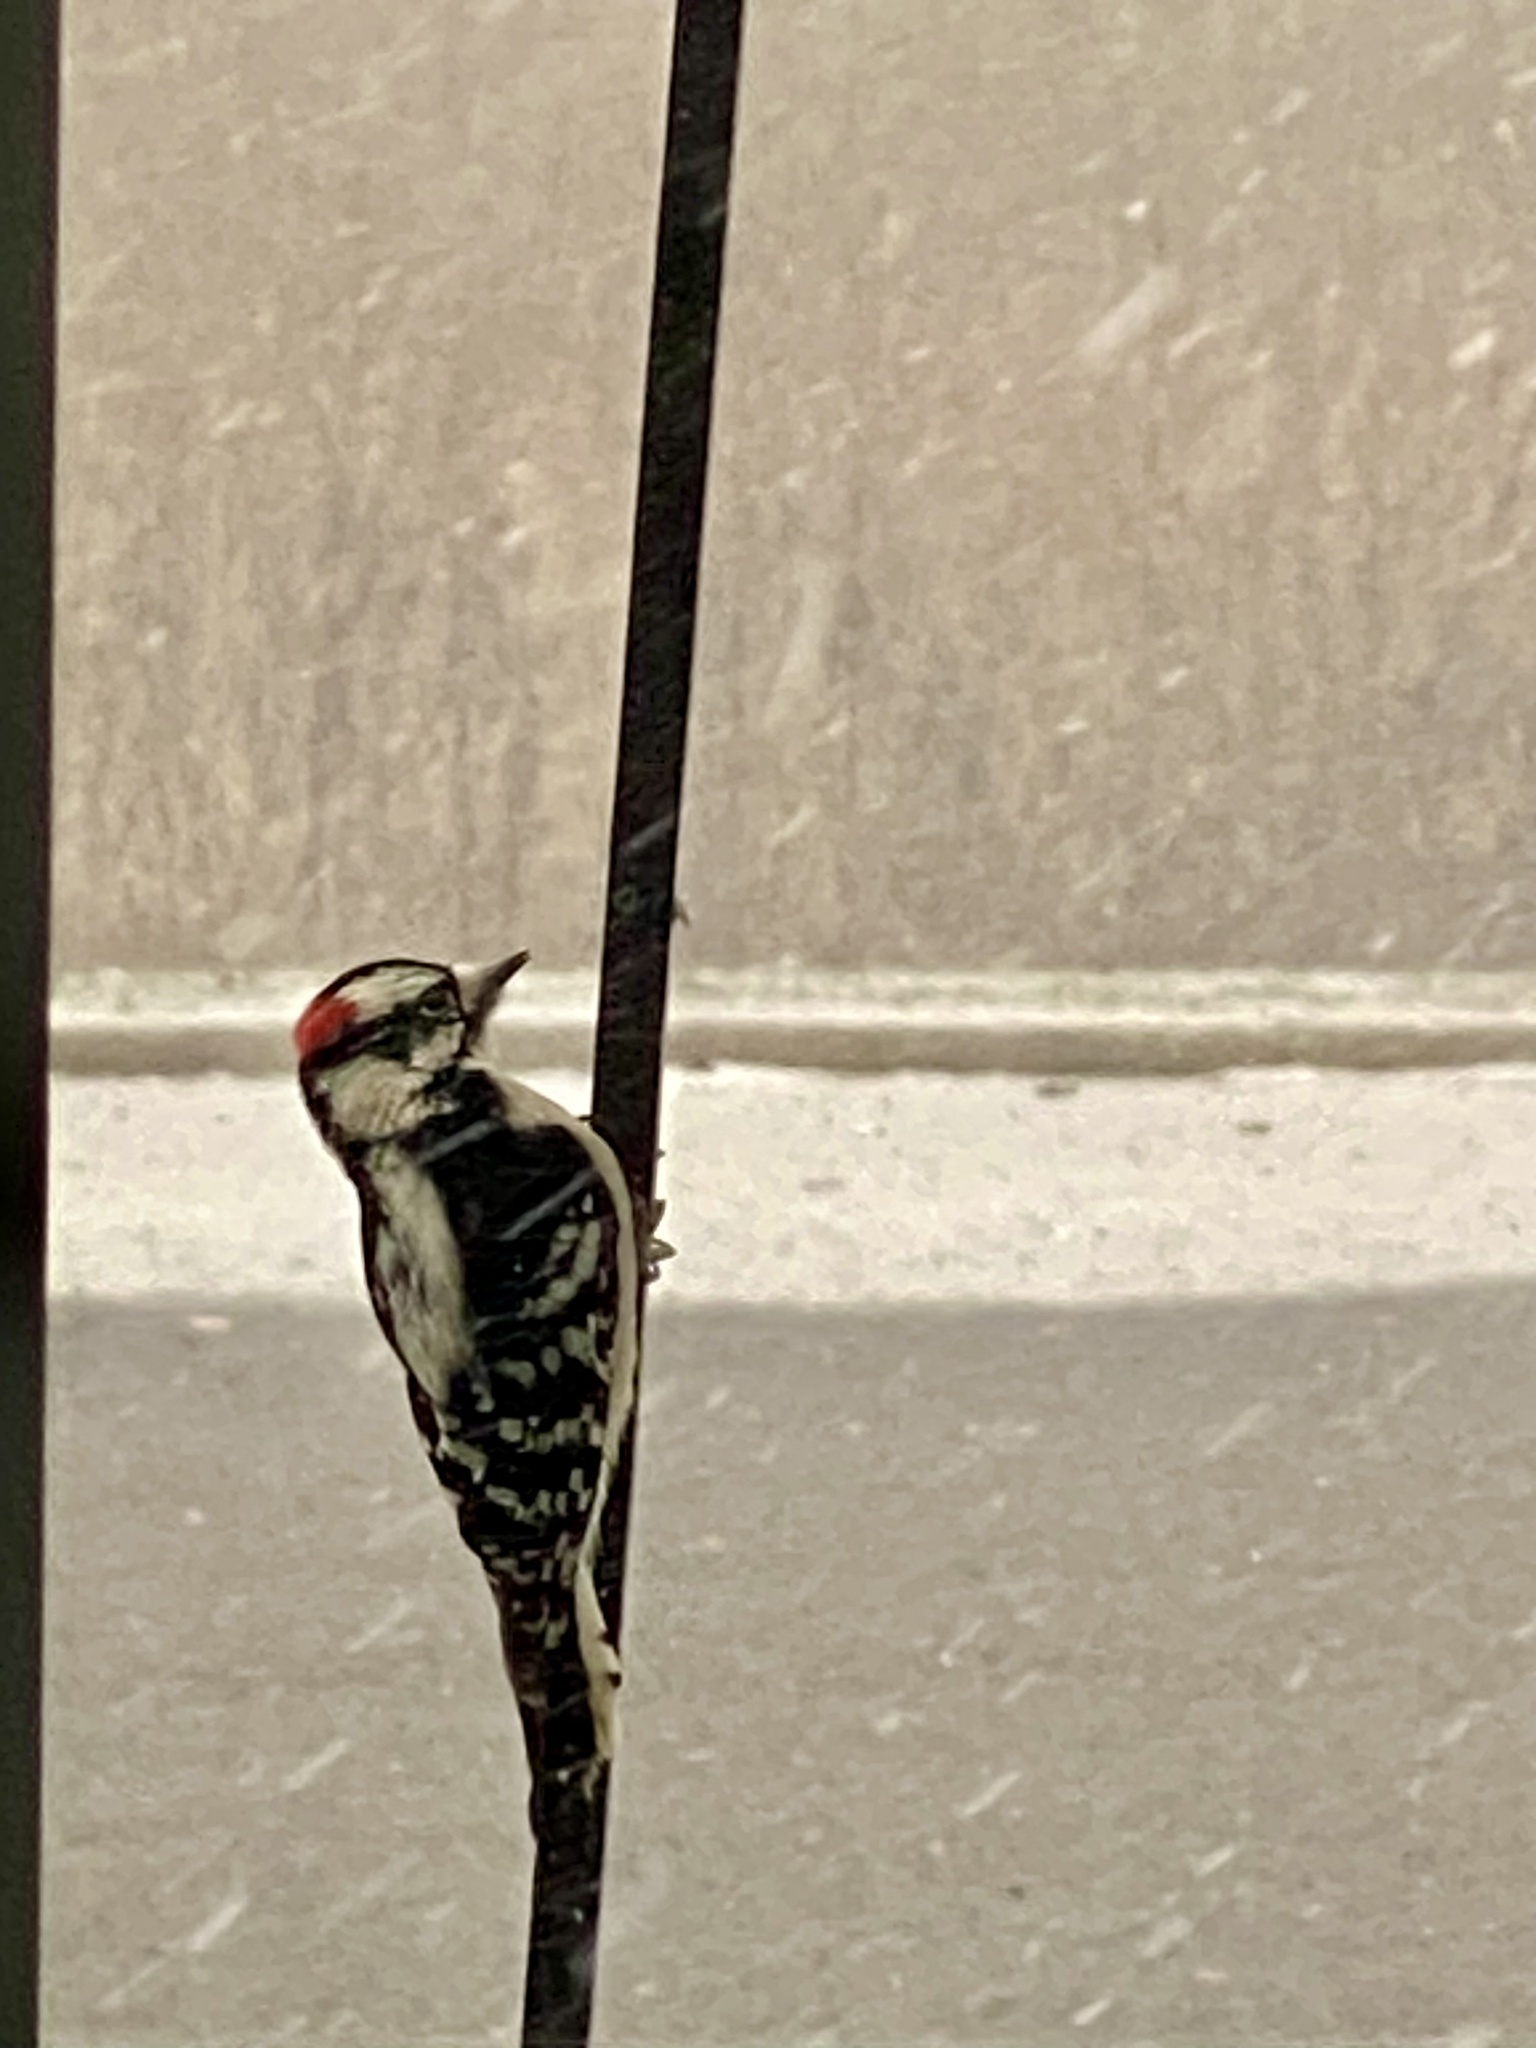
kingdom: Animalia
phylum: Chordata
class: Aves
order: Piciformes
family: Picidae
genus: Dryobates
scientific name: Dryobates pubescens
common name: Downy woodpecker
